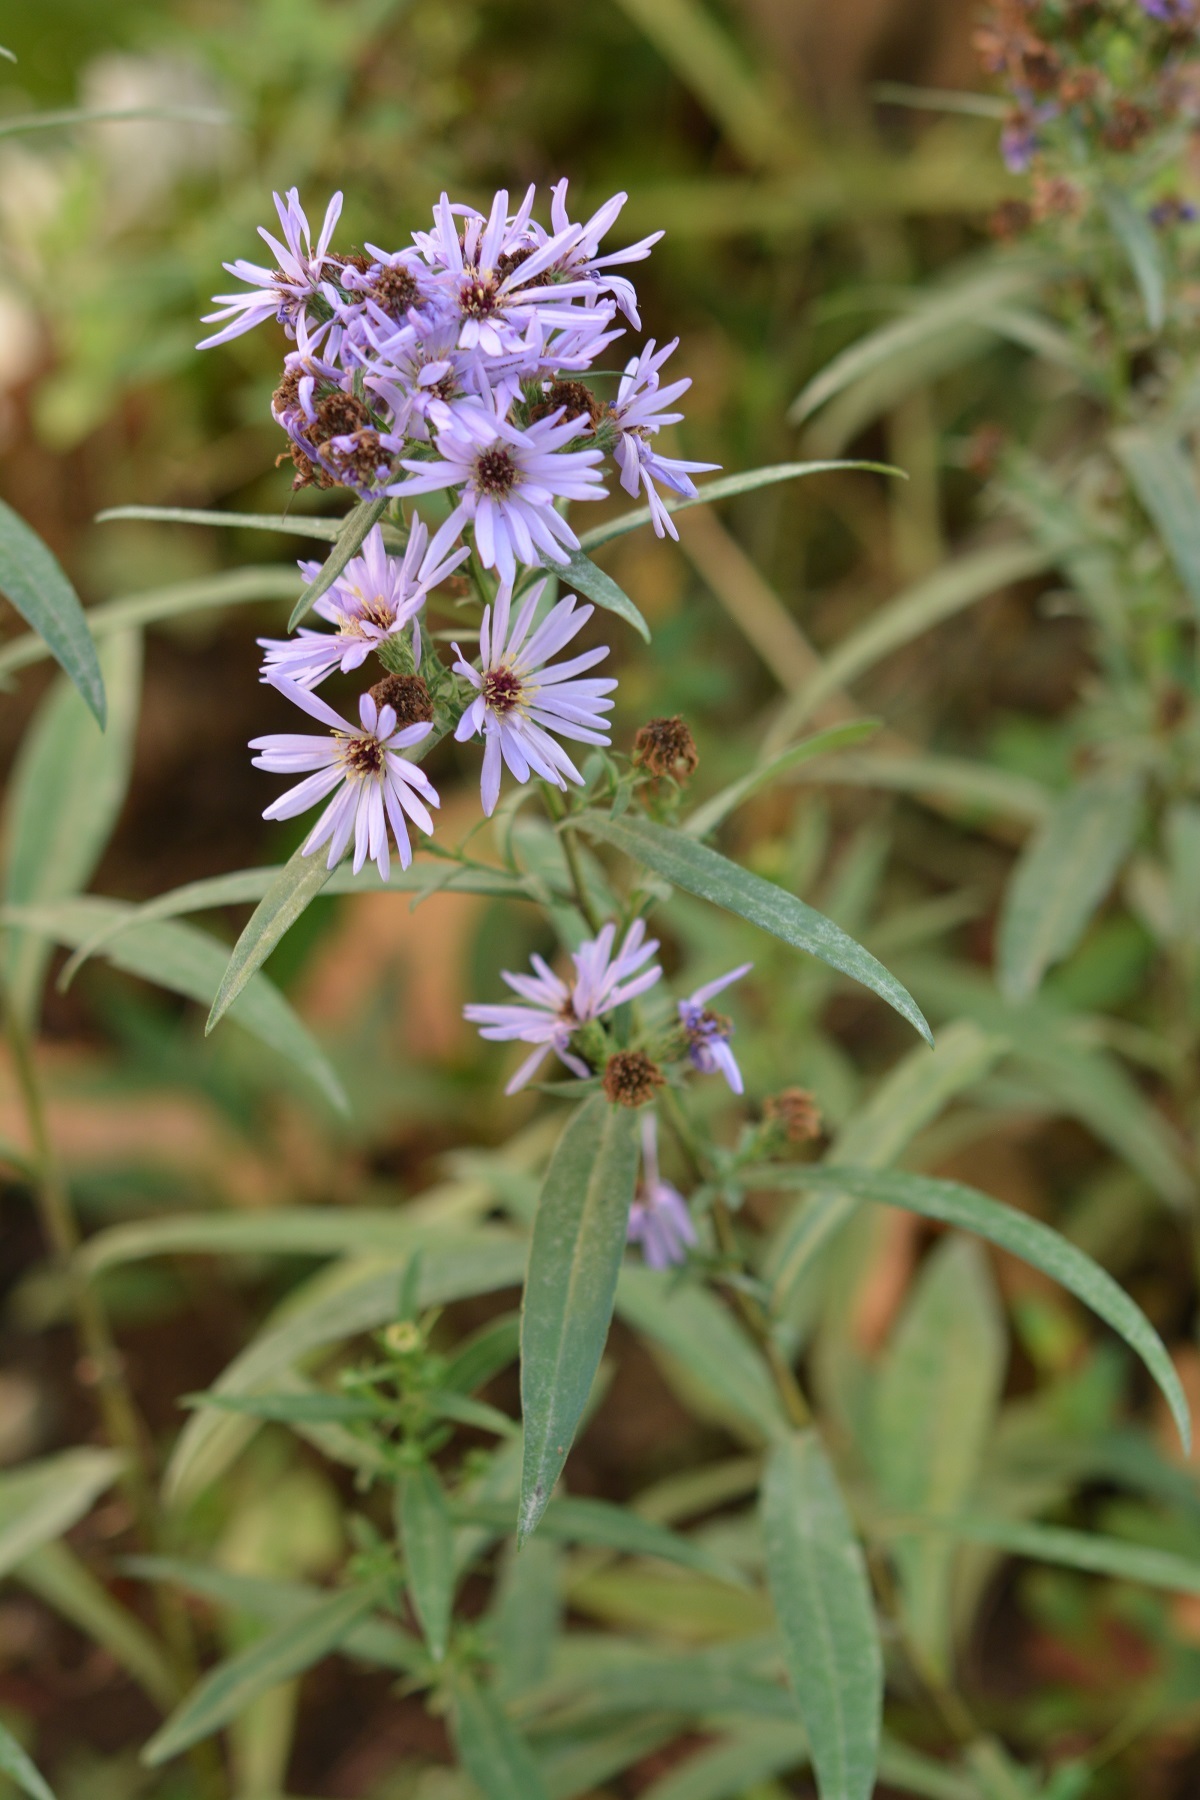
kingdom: Plantae
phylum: Tracheophyta
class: Magnoliopsida
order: Asterales
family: Asteraceae
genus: Symphyotrichum
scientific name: Symphyotrichum laeve
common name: Glaucous aster
